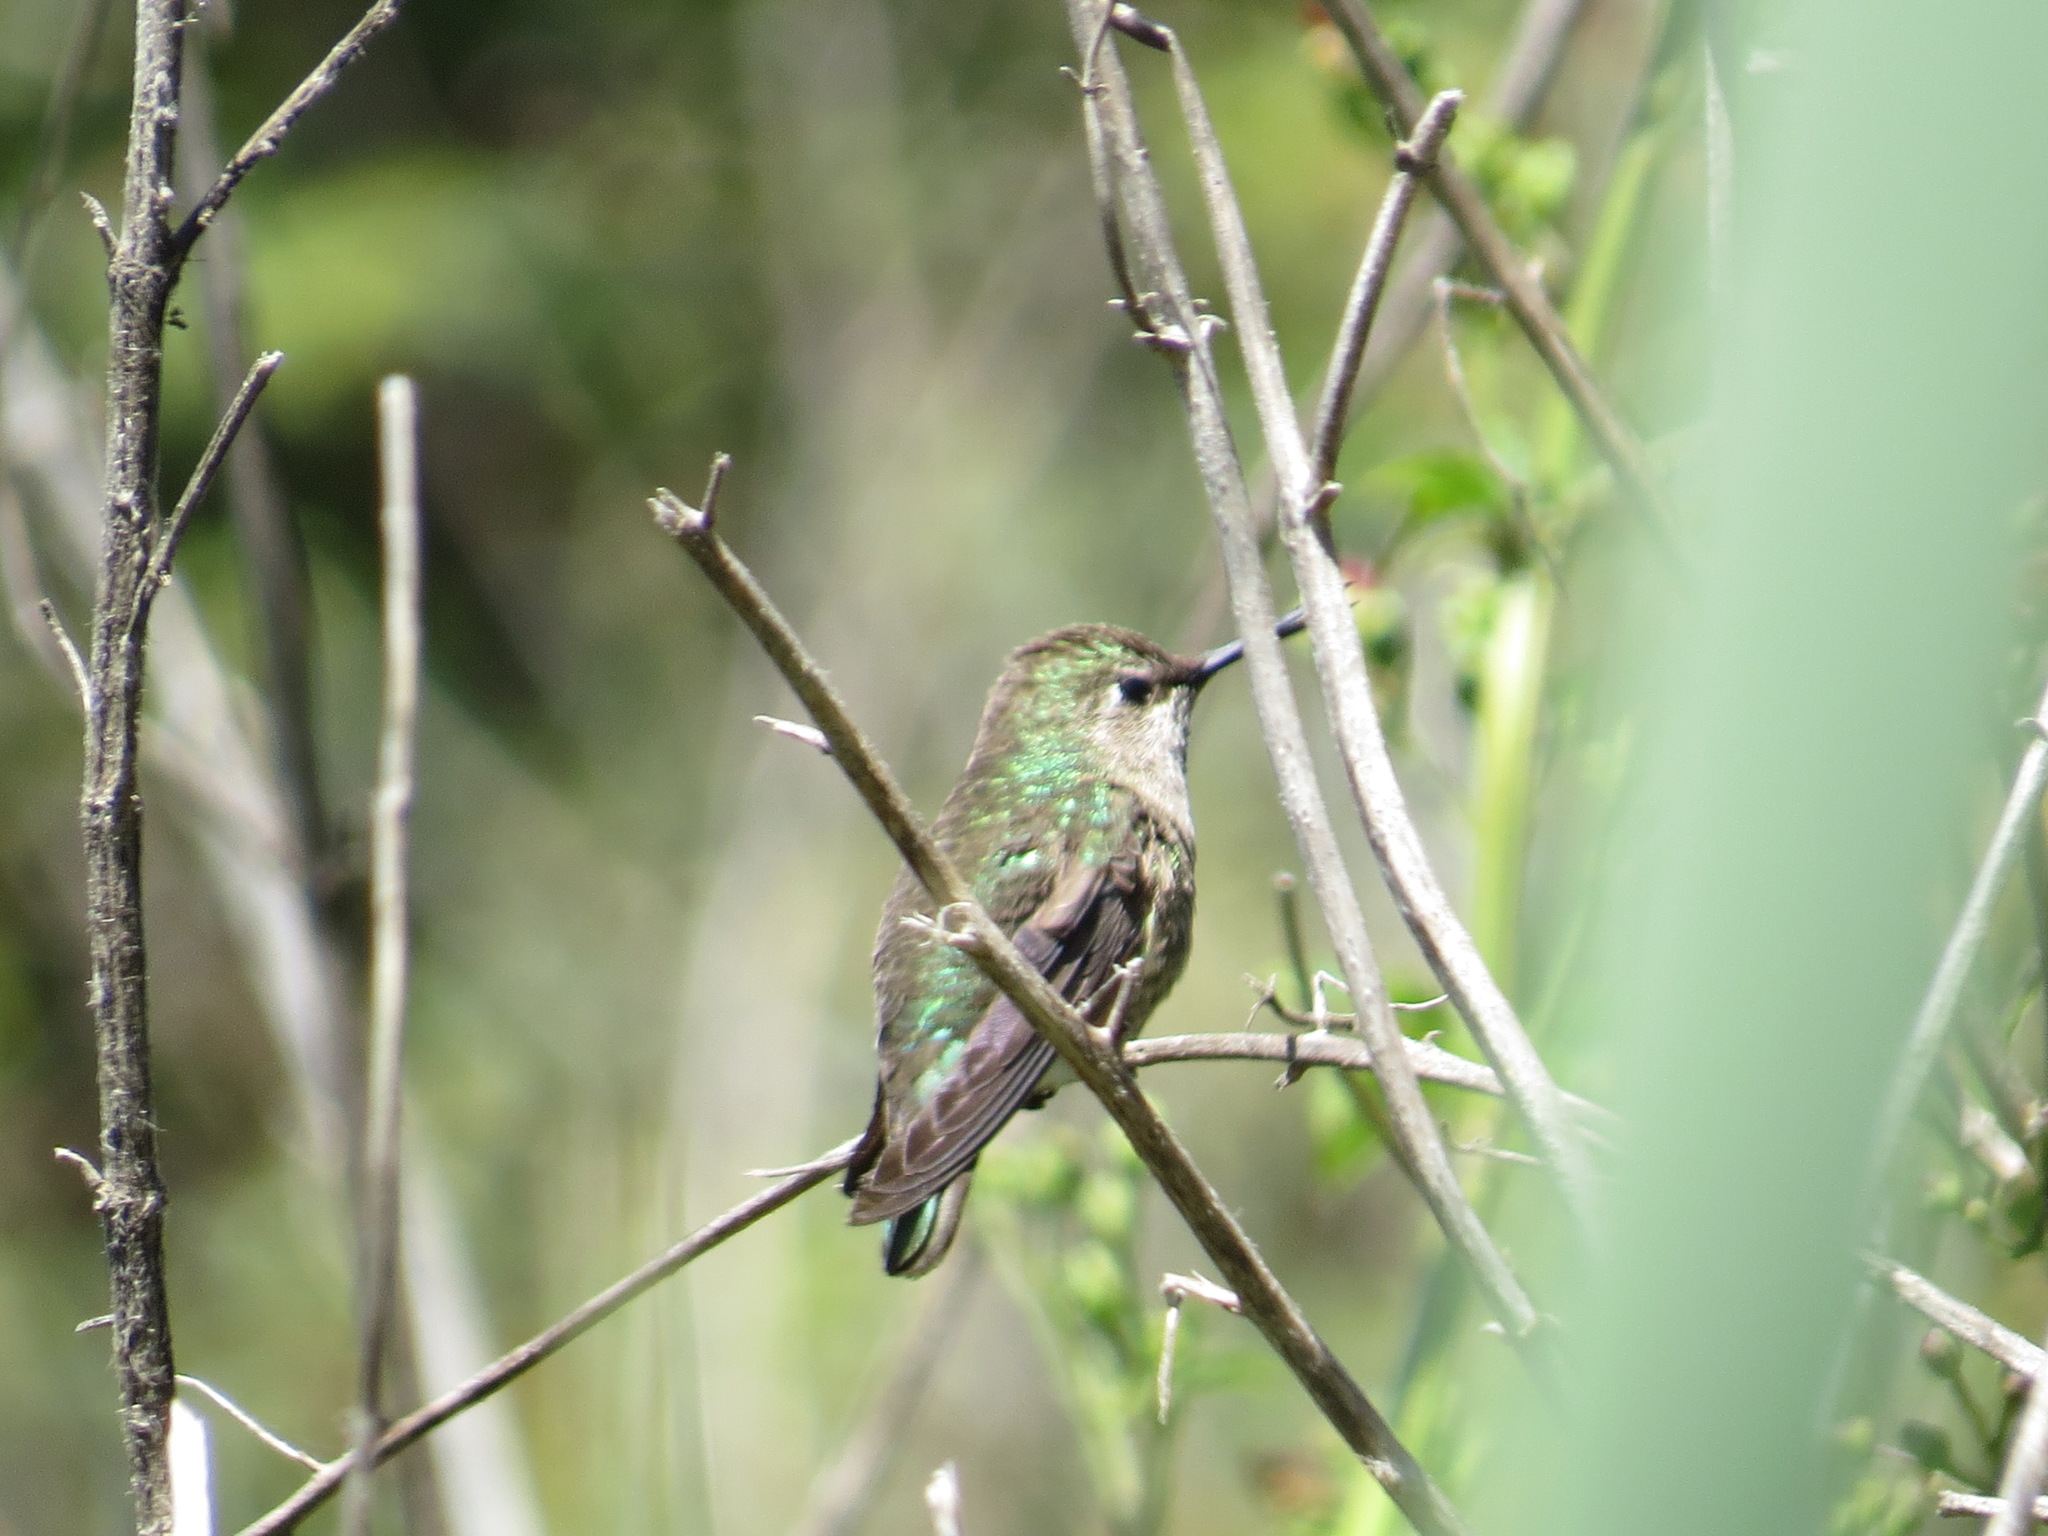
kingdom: Animalia
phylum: Chordata
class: Aves
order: Apodiformes
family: Trochilidae
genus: Calypte
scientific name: Calypte anna
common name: Anna's hummingbird
